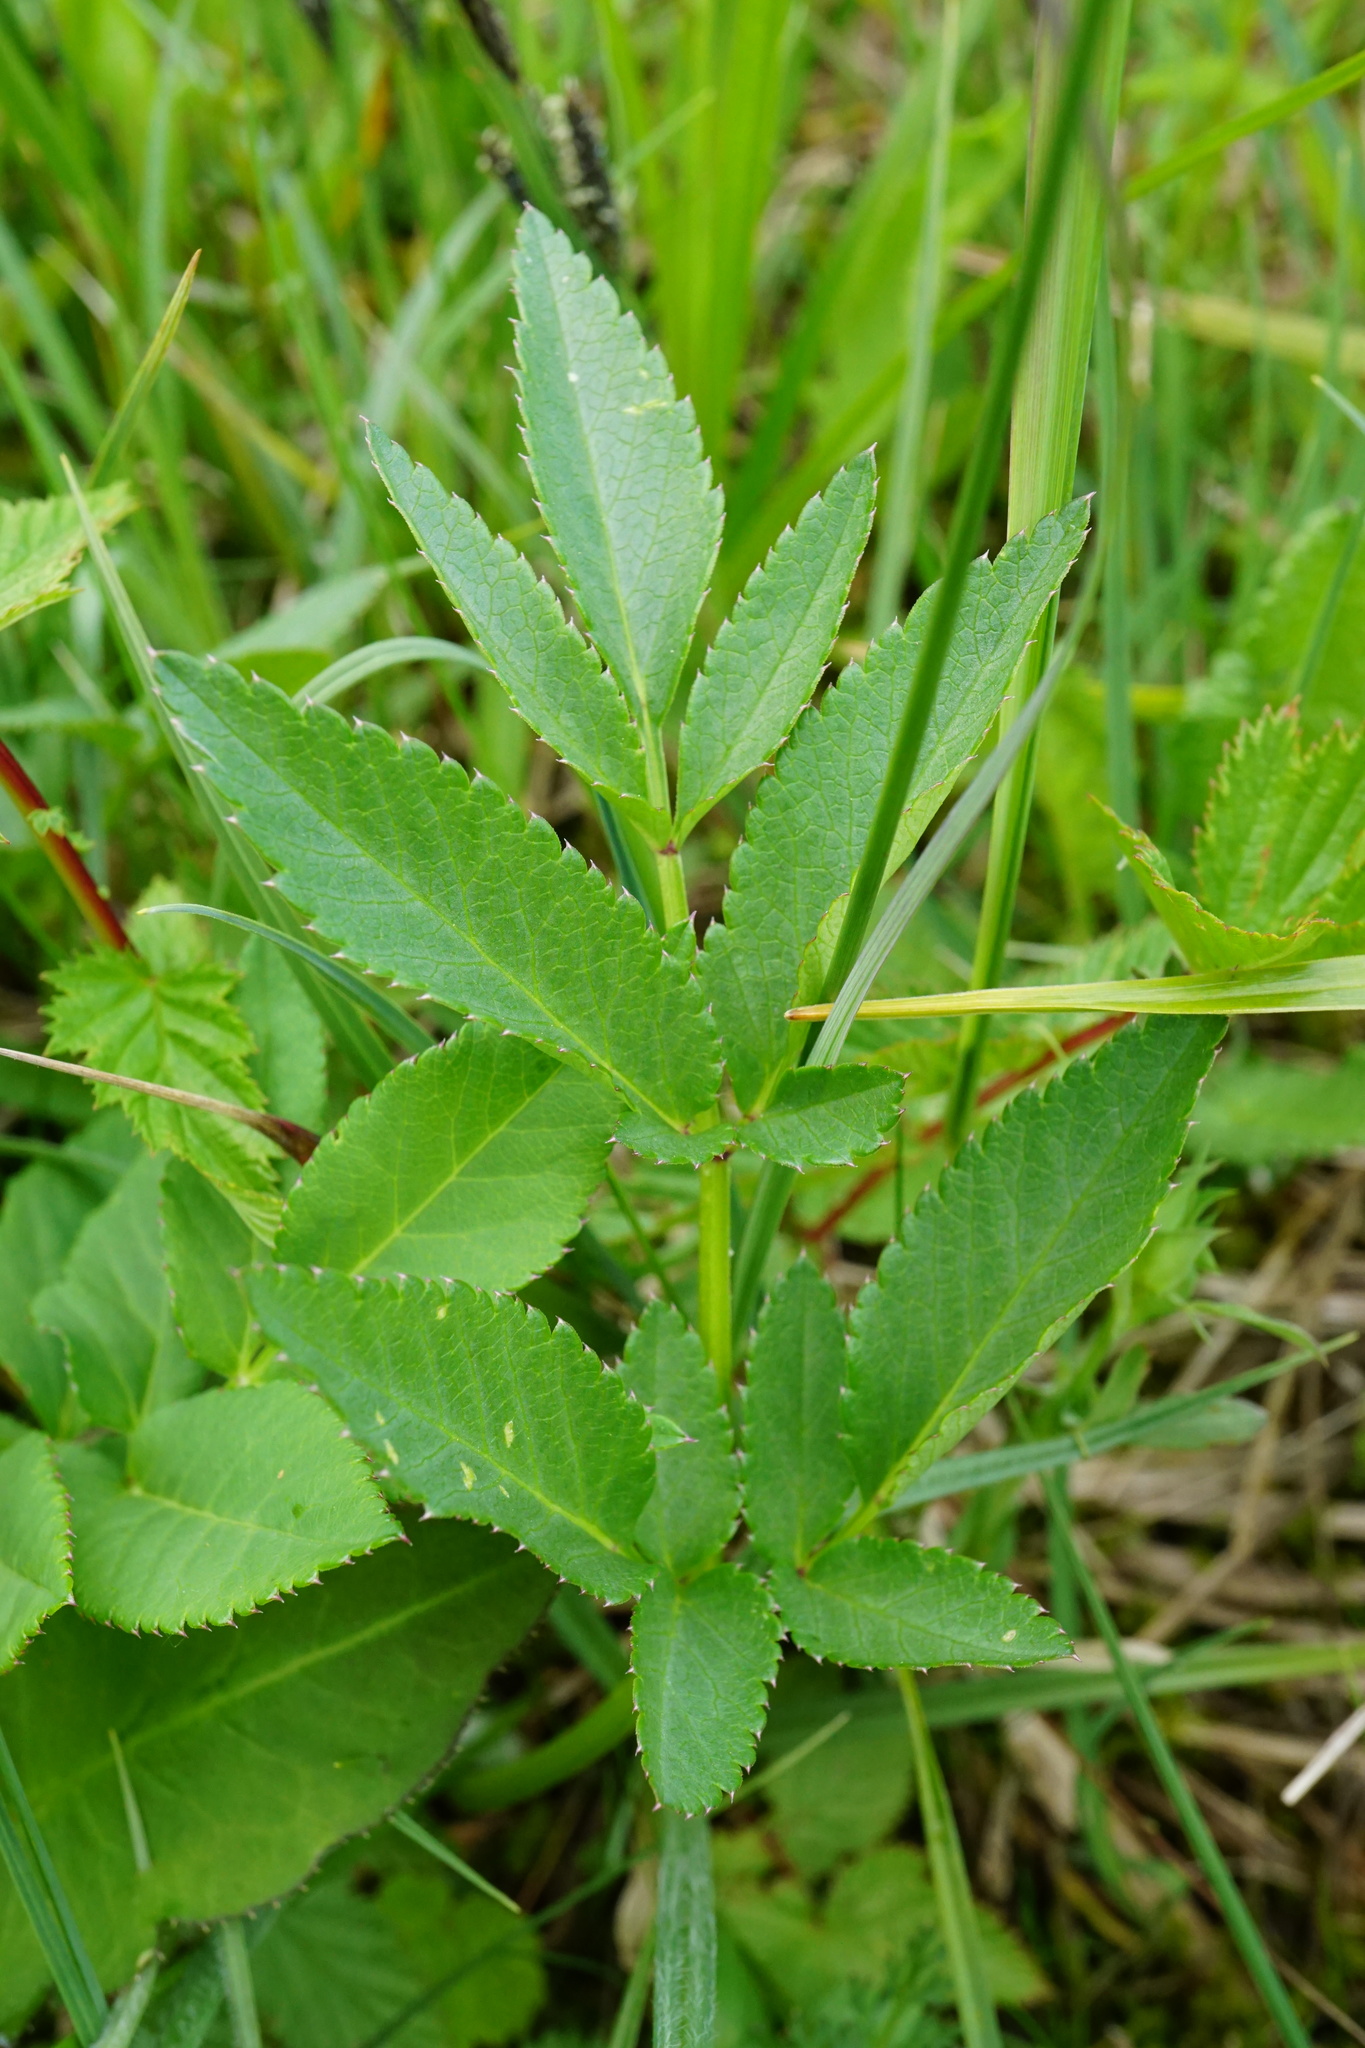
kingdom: Plantae
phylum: Tracheophyta
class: Magnoliopsida
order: Apiales
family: Apiaceae
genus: Angelica
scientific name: Angelica sylvestris
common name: Wild angelica
